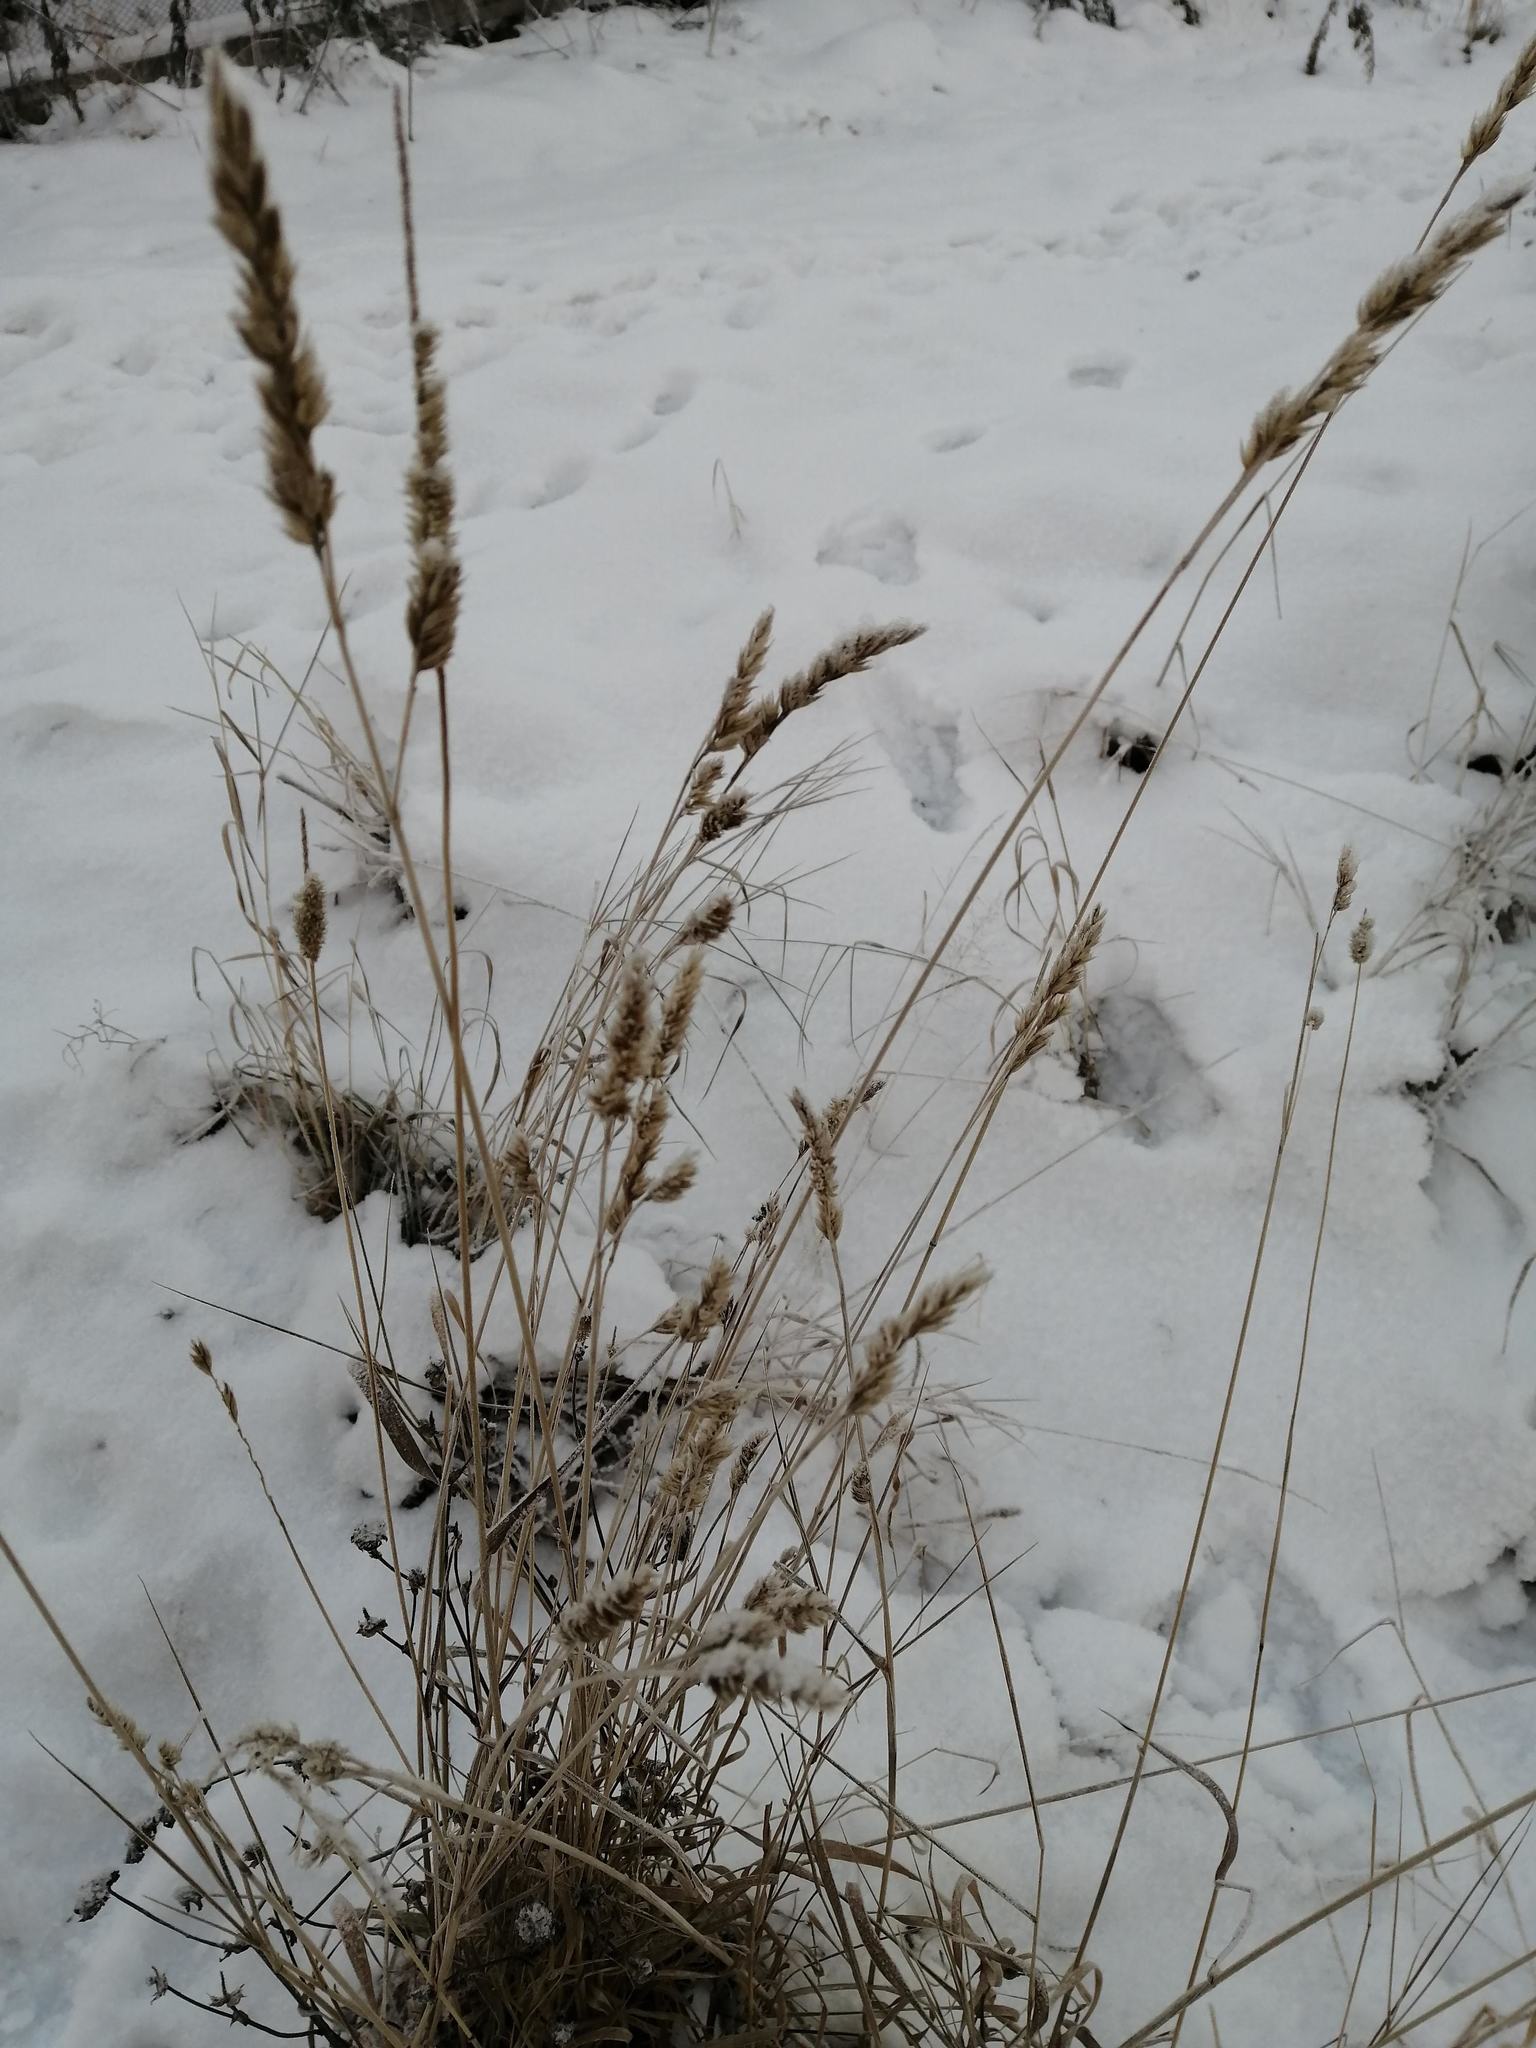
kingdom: Plantae
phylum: Tracheophyta
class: Liliopsida
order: Poales
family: Poaceae
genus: Dactylis
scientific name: Dactylis glomerata
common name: Orchardgrass
